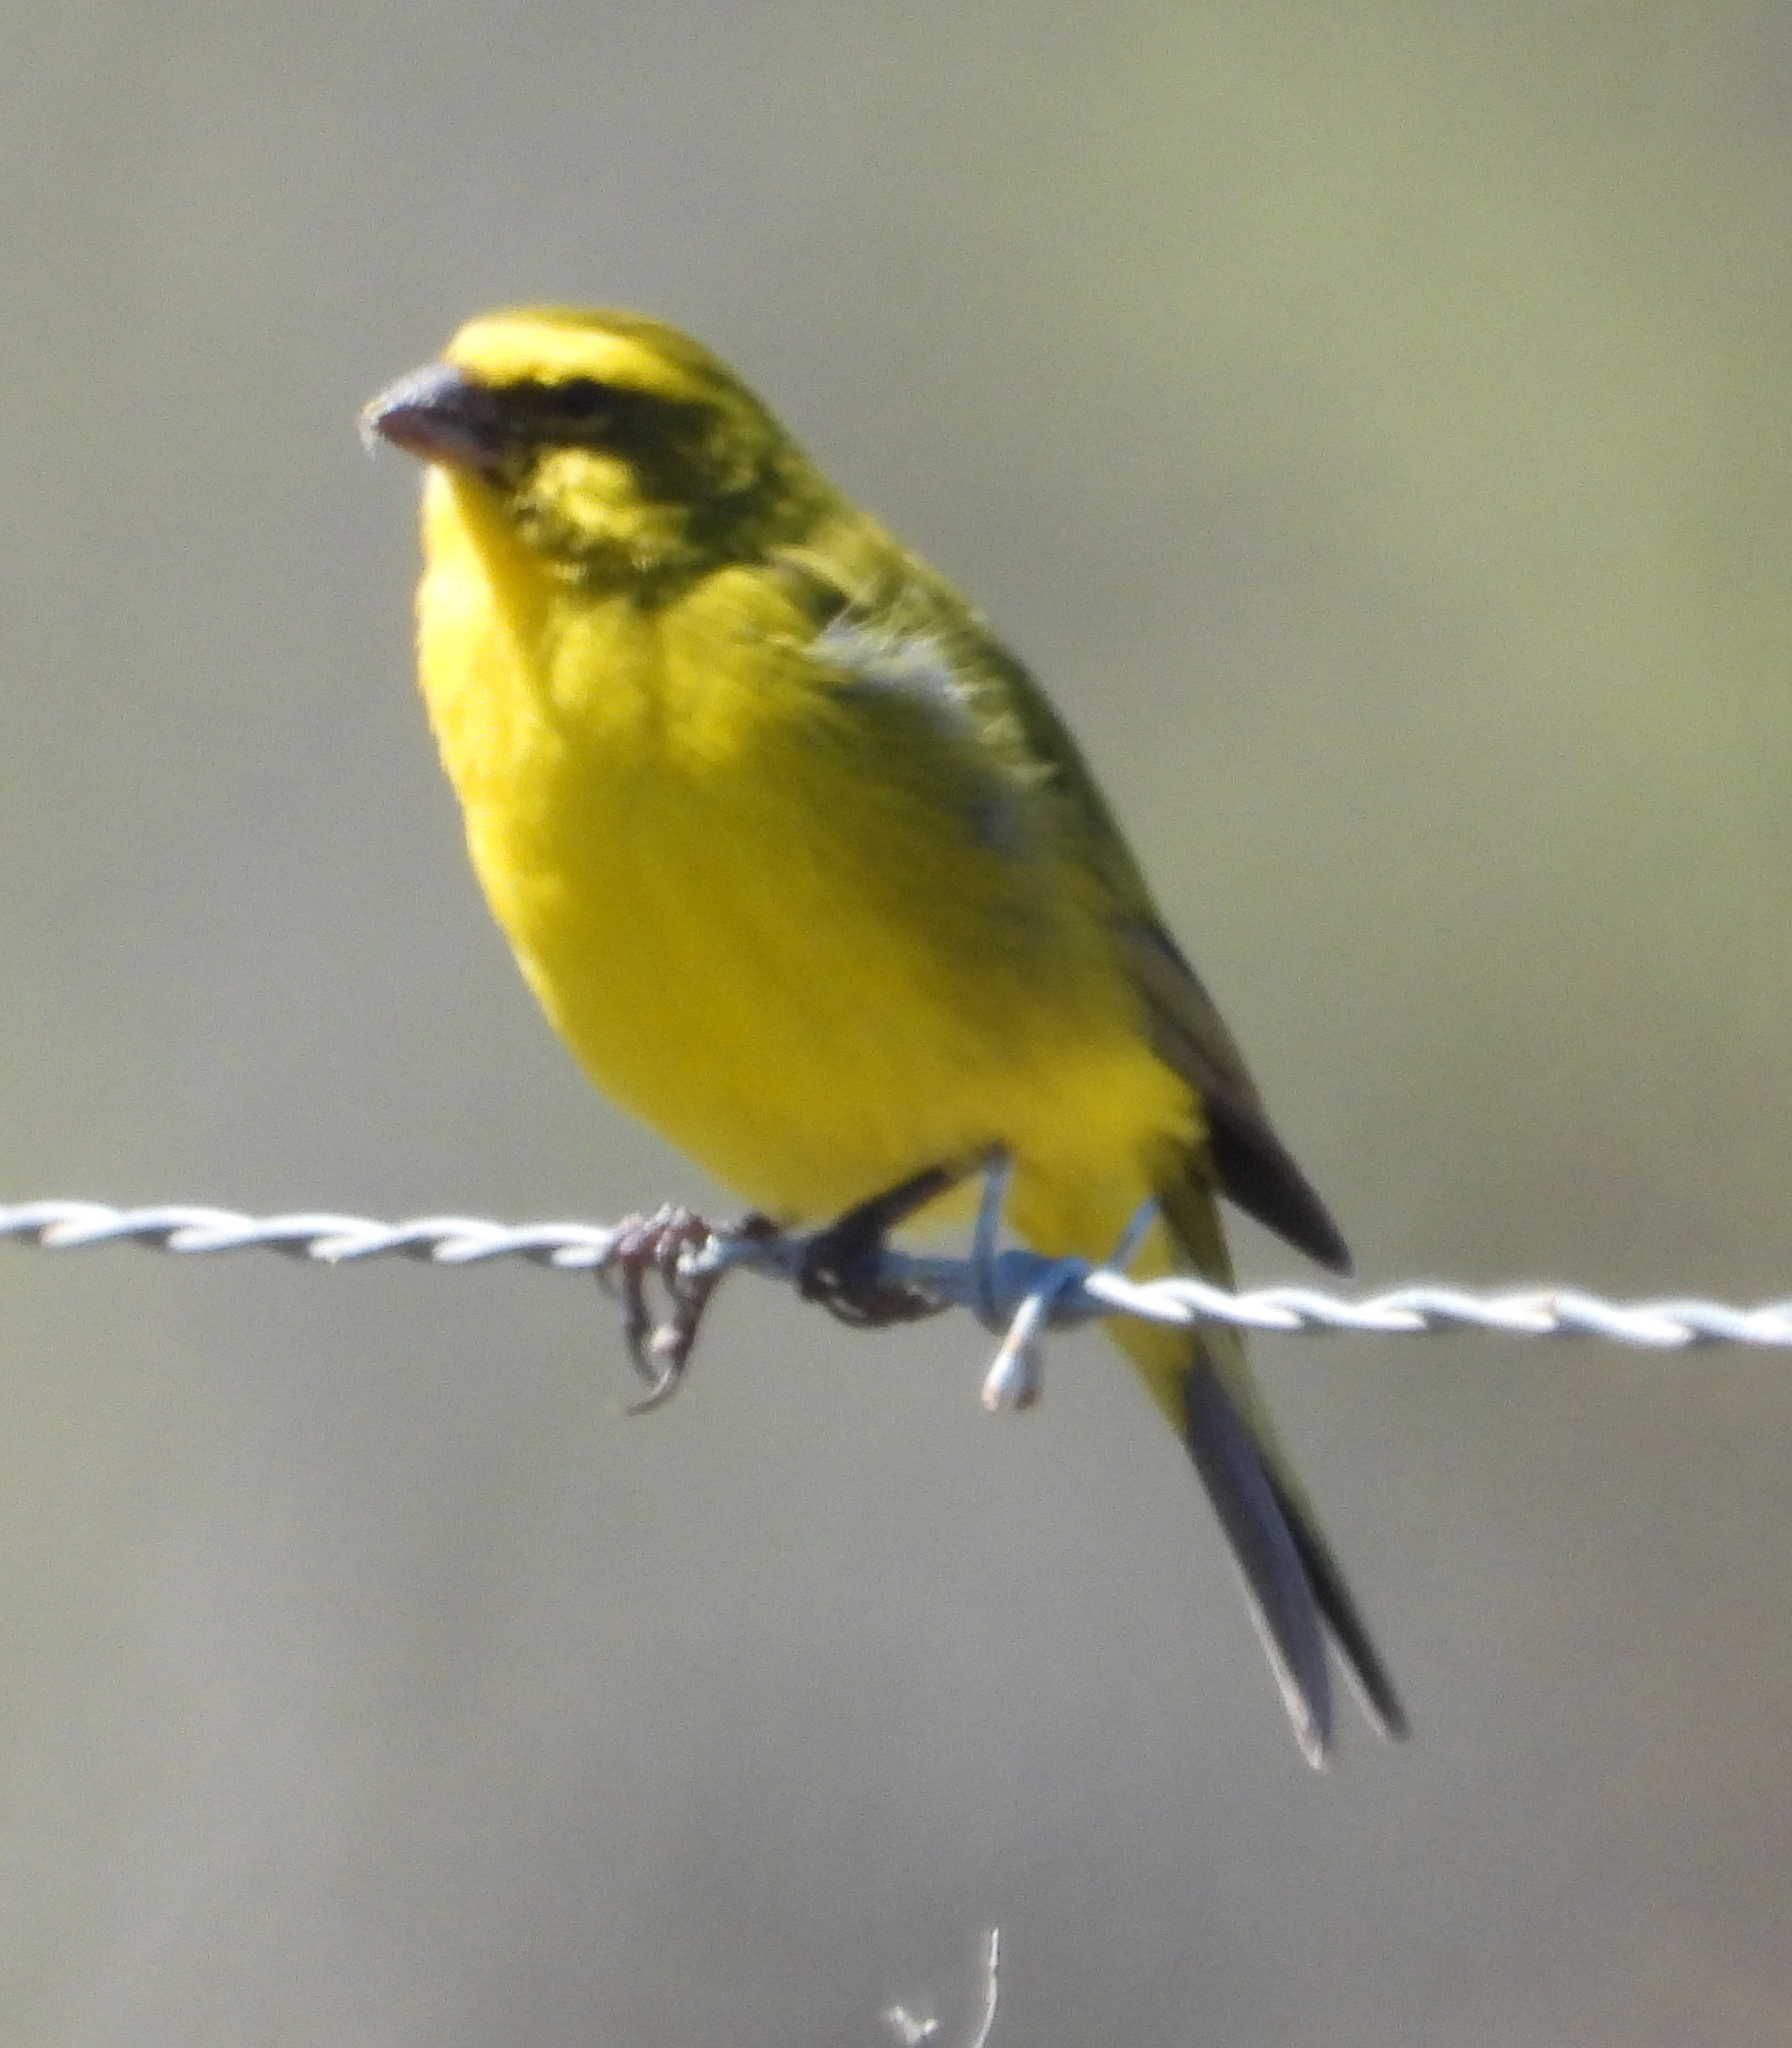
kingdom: Animalia
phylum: Chordata
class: Aves
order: Passeriformes
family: Fringillidae
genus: Crithagra
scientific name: Crithagra flaviventris
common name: Yellow canary
